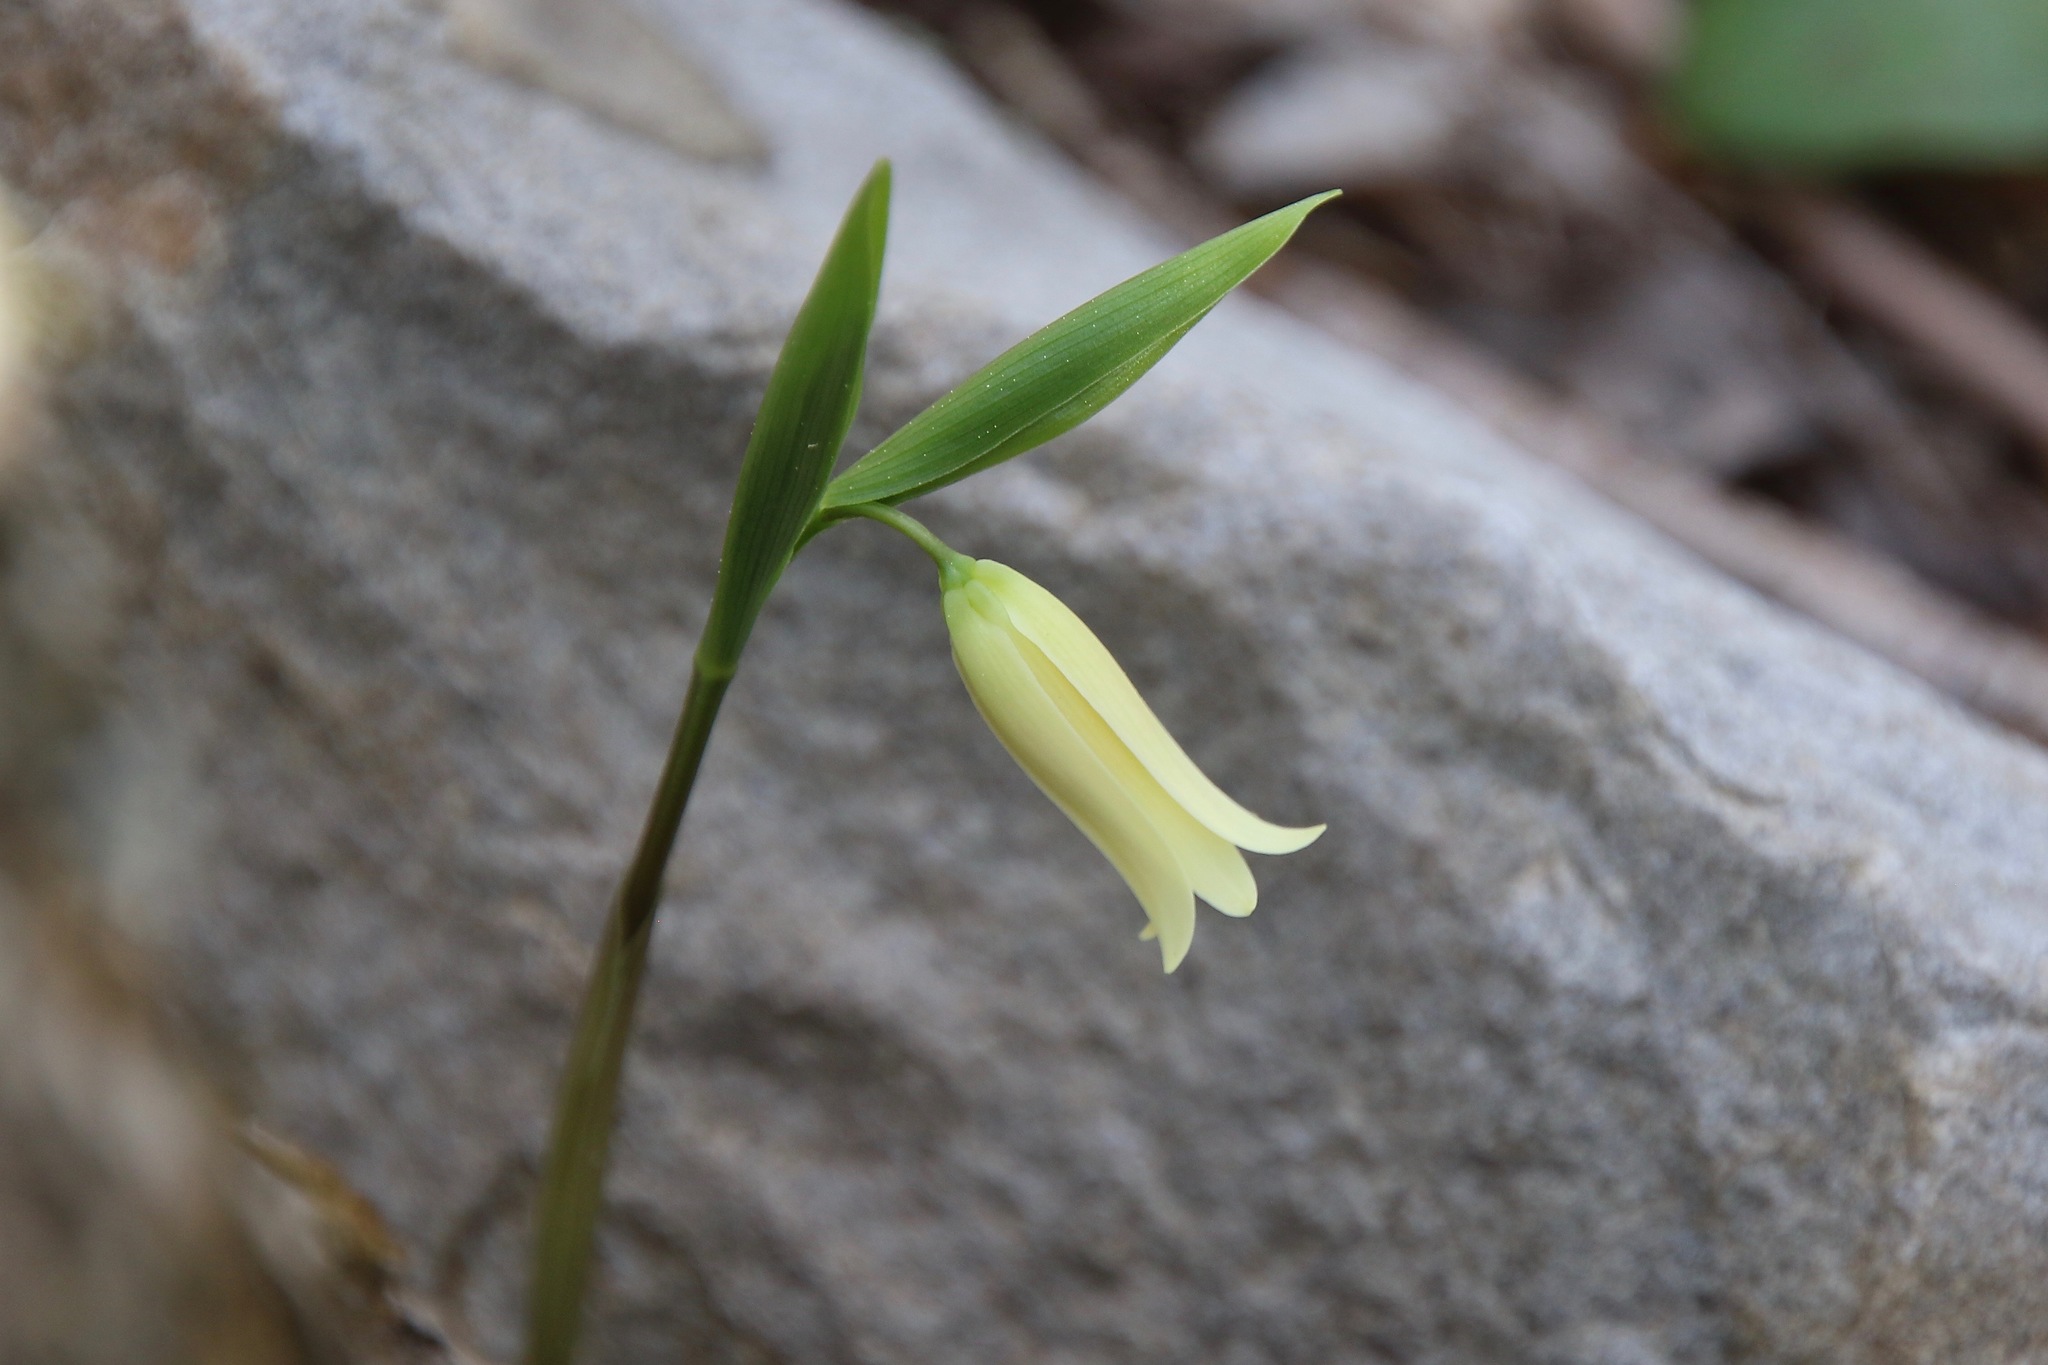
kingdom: Plantae
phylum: Tracheophyta
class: Liliopsida
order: Liliales
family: Colchicaceae
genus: Uvularia
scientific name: Uvularia puberula
